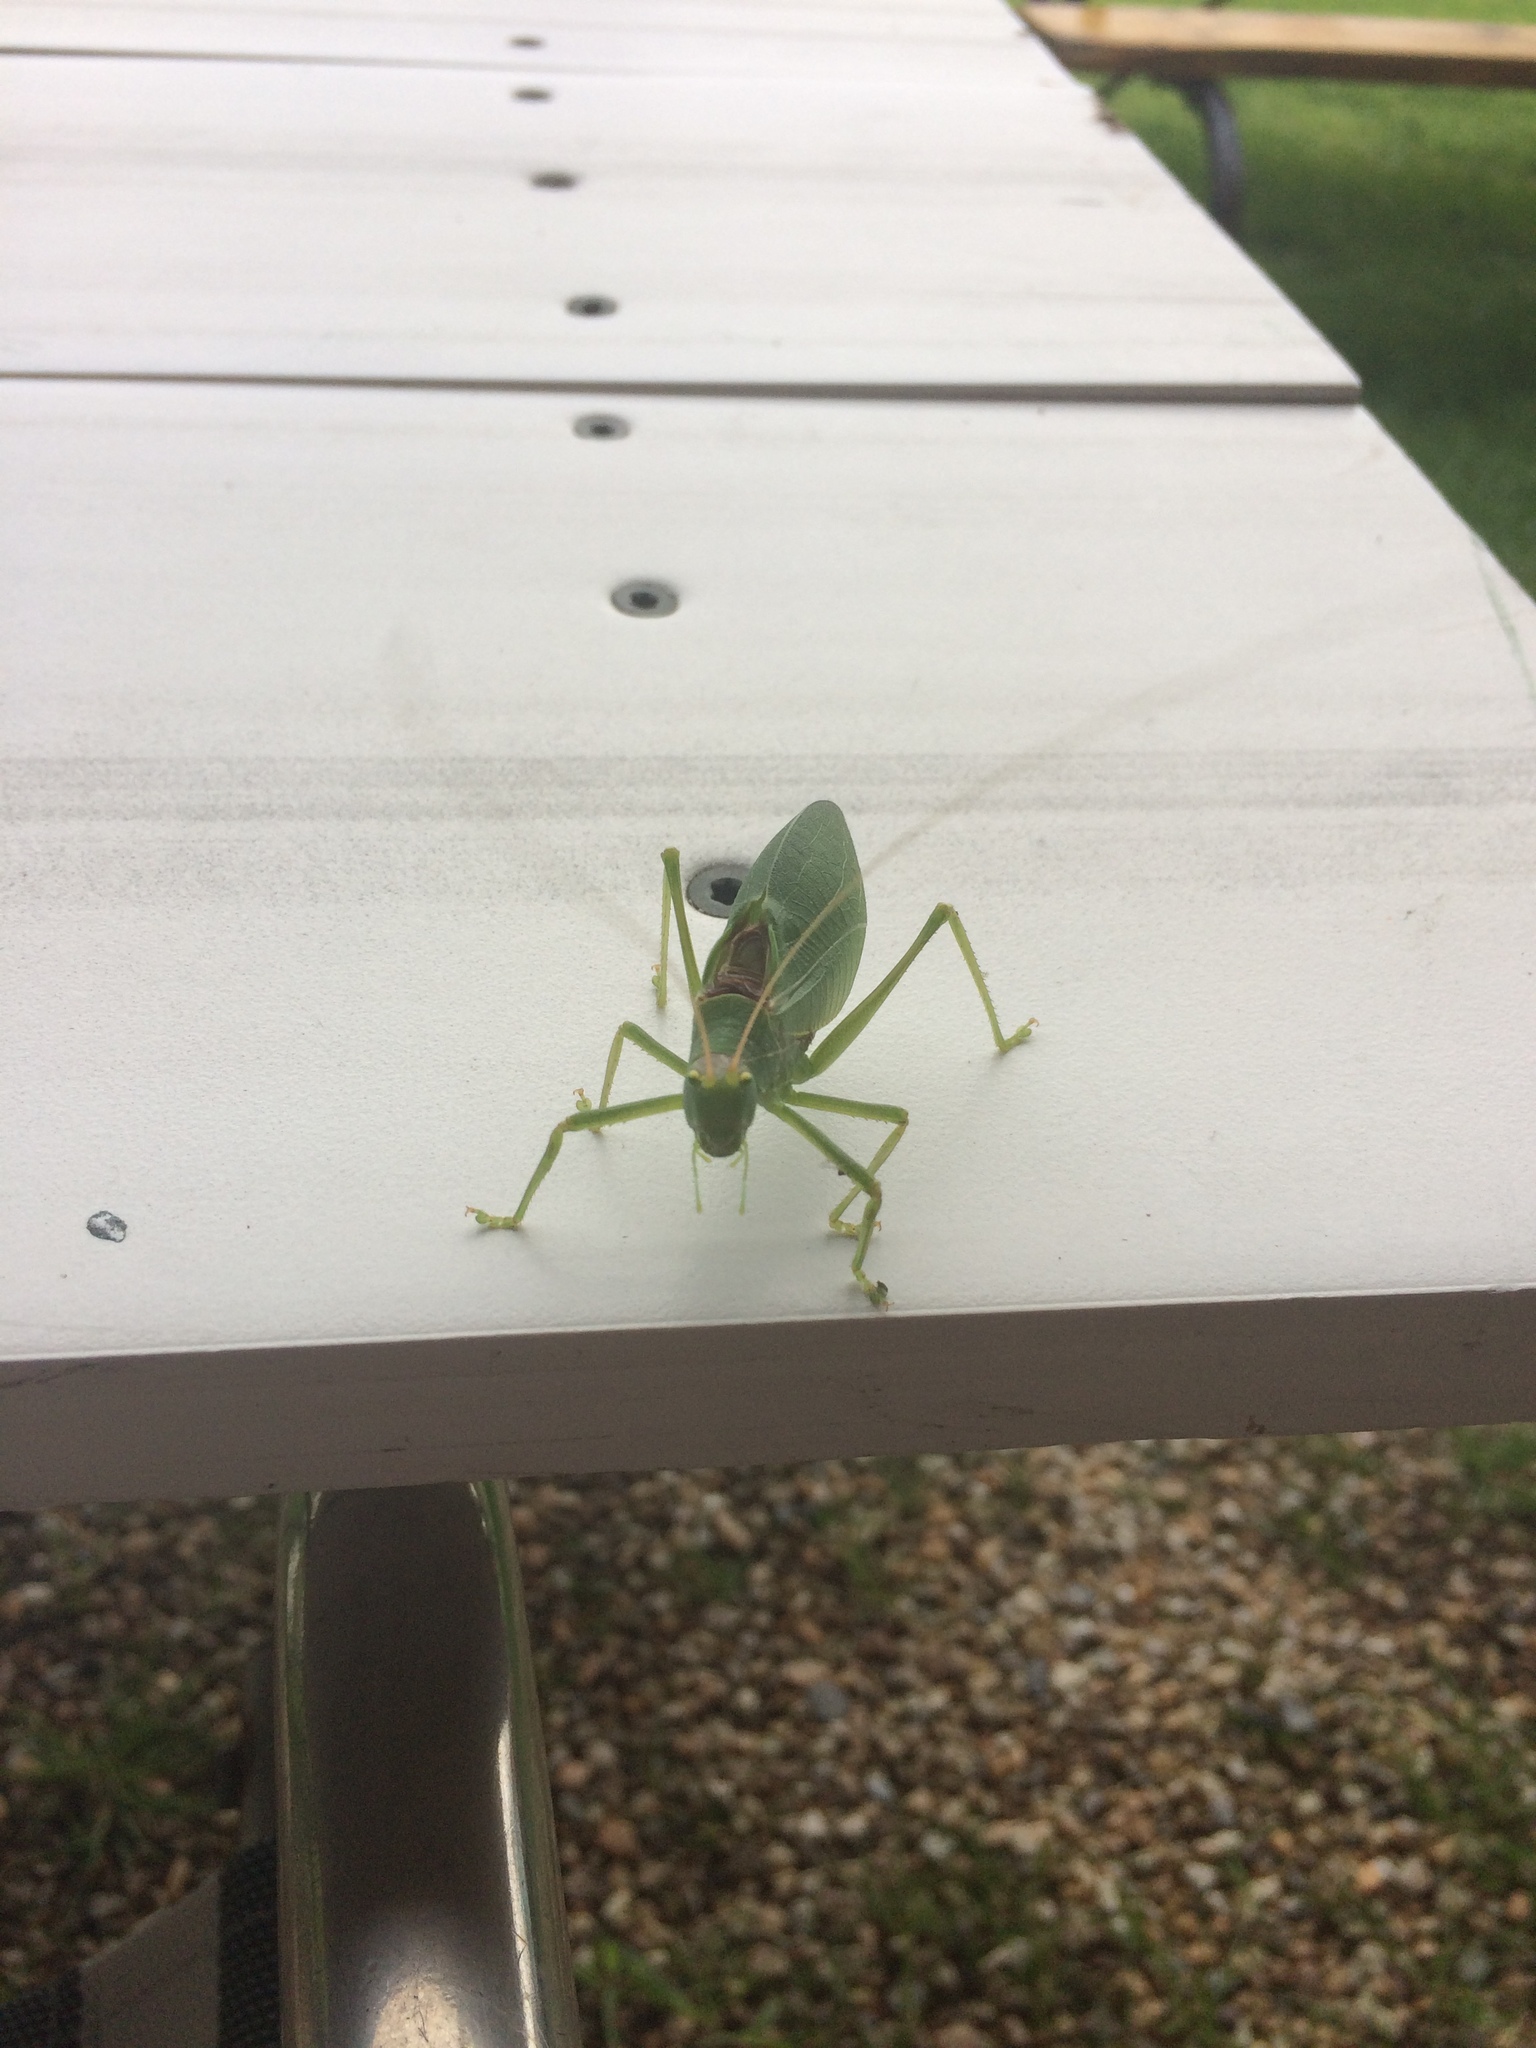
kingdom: Animalia
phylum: Arthropoda
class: Insecta
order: Orthoptera
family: Tettigoniidae
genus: Pterophylla
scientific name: Pterophylla camellifolia
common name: Common true katydid
